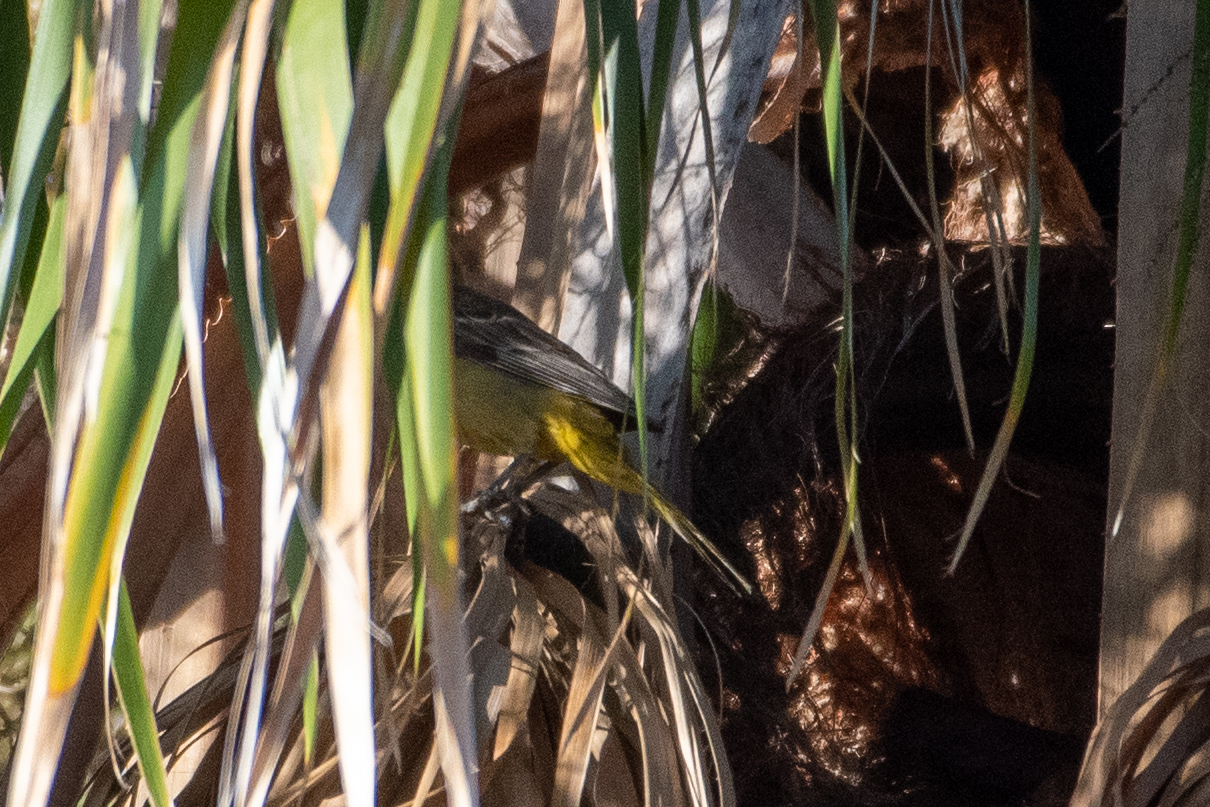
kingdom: Animalia
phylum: Chordata
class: Aves
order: Passeriformes
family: Icteridae
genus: Icterus
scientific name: Icterus cucullatus
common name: Hooded oriole
